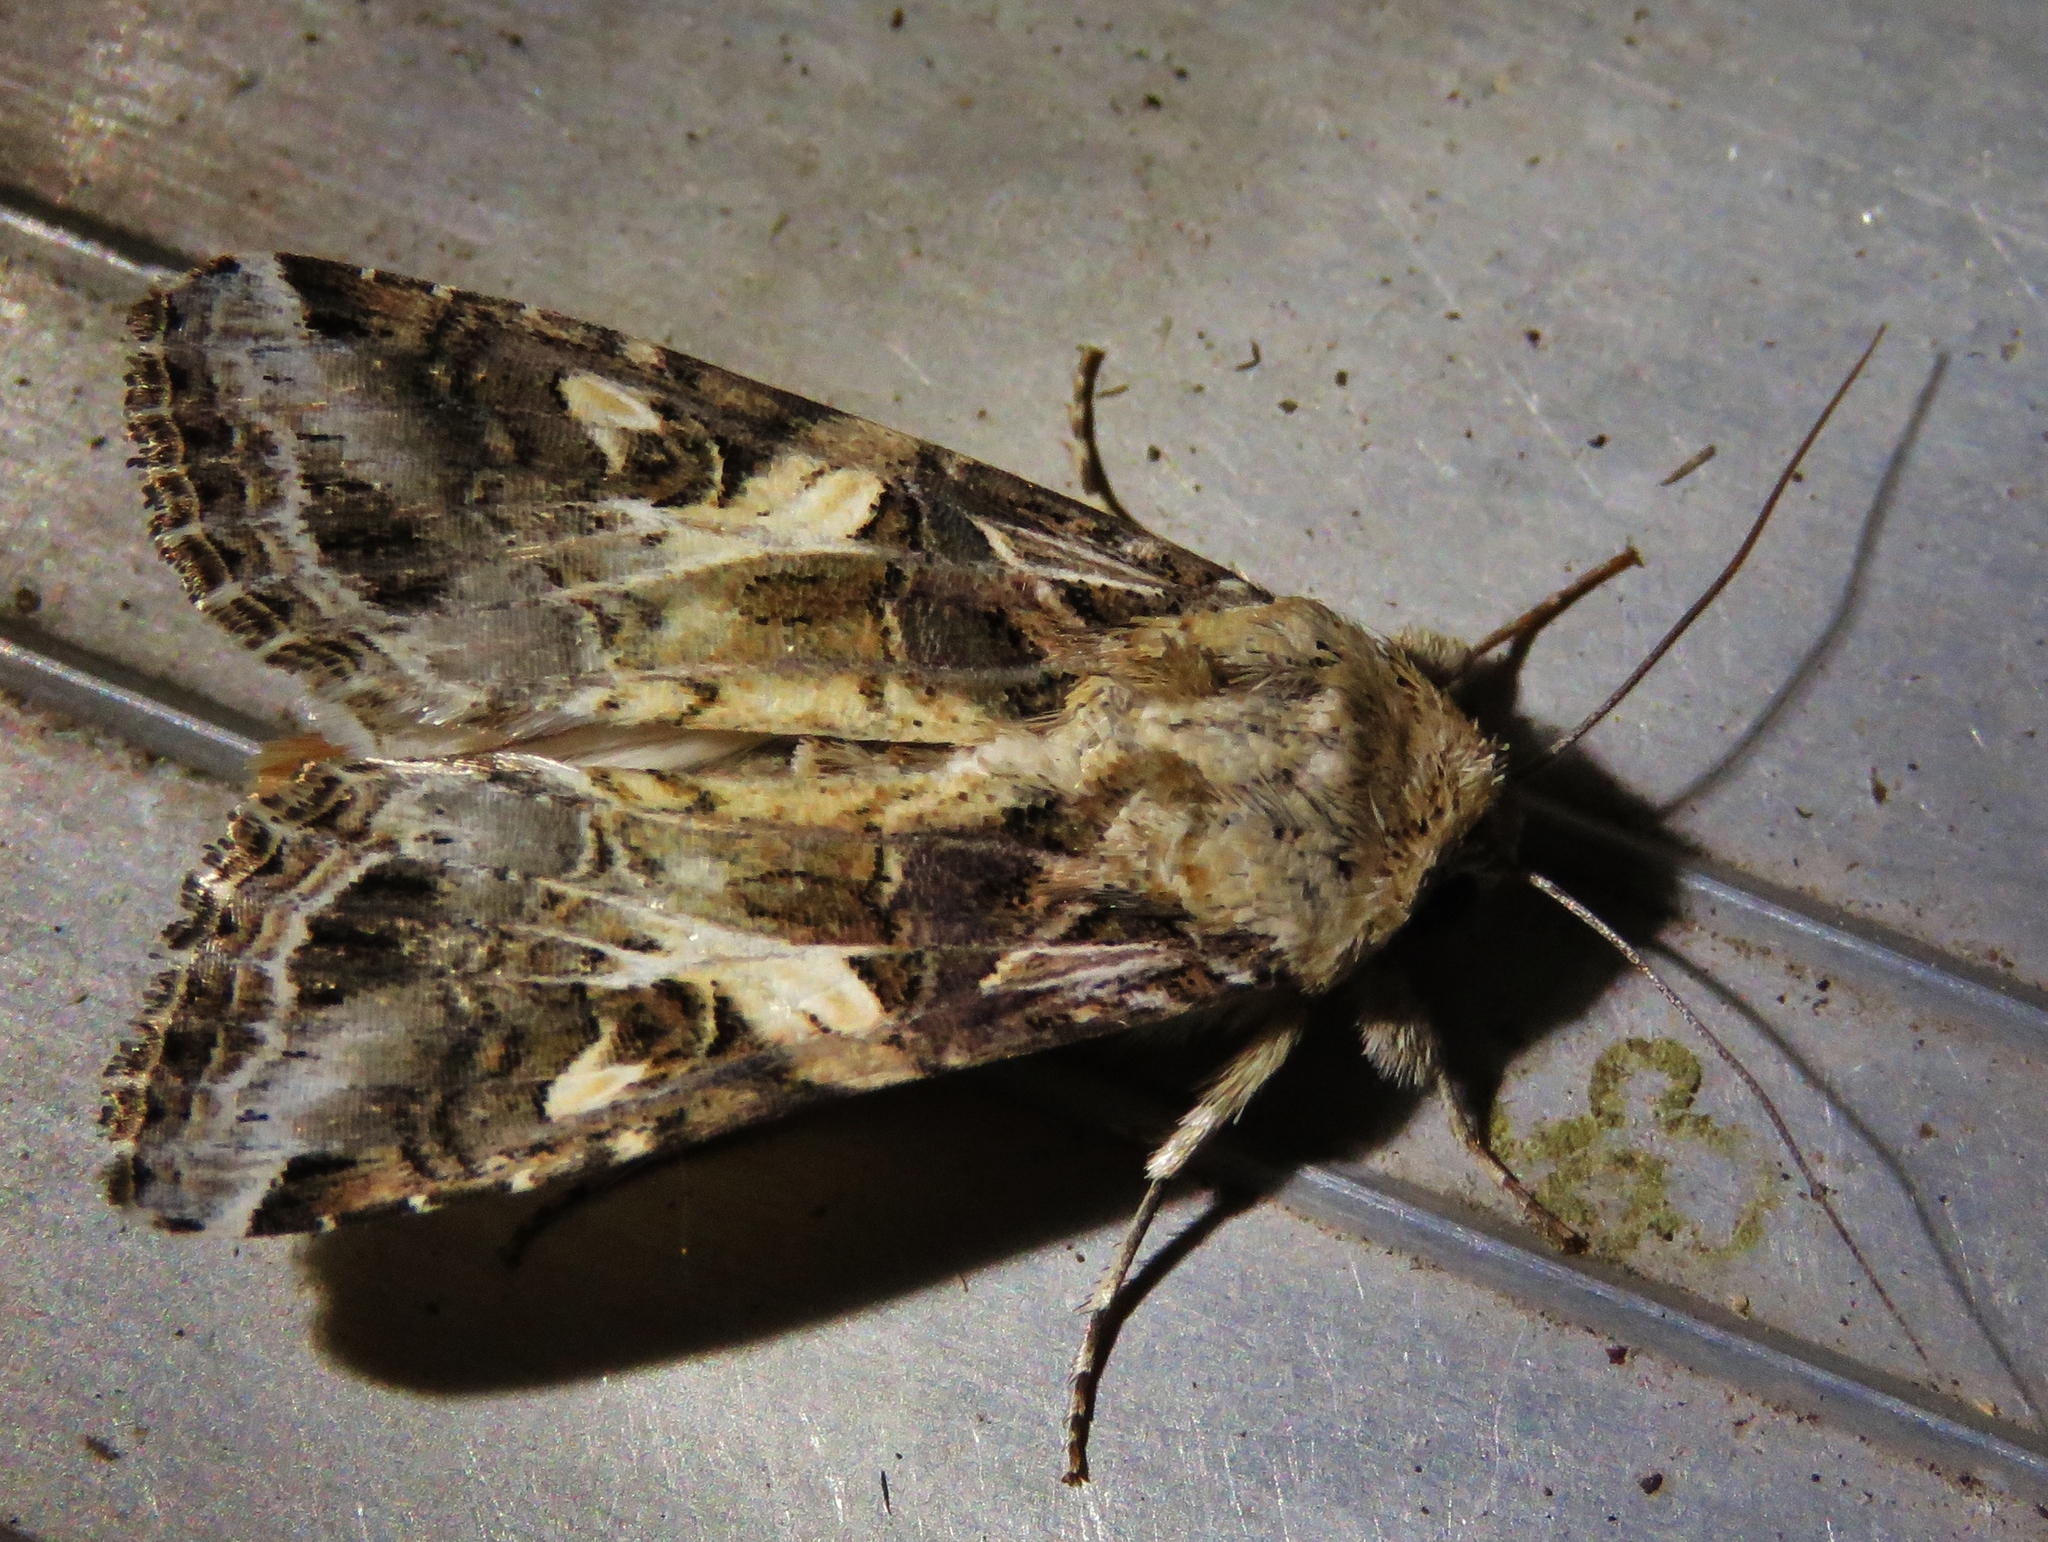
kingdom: Animalia
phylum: Arthropoda
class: Insecta
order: Lepidoptera
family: Noctuidae
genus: Spodoptera
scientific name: Spodoptera ornithogalli
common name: Yellow-striped armyworm
